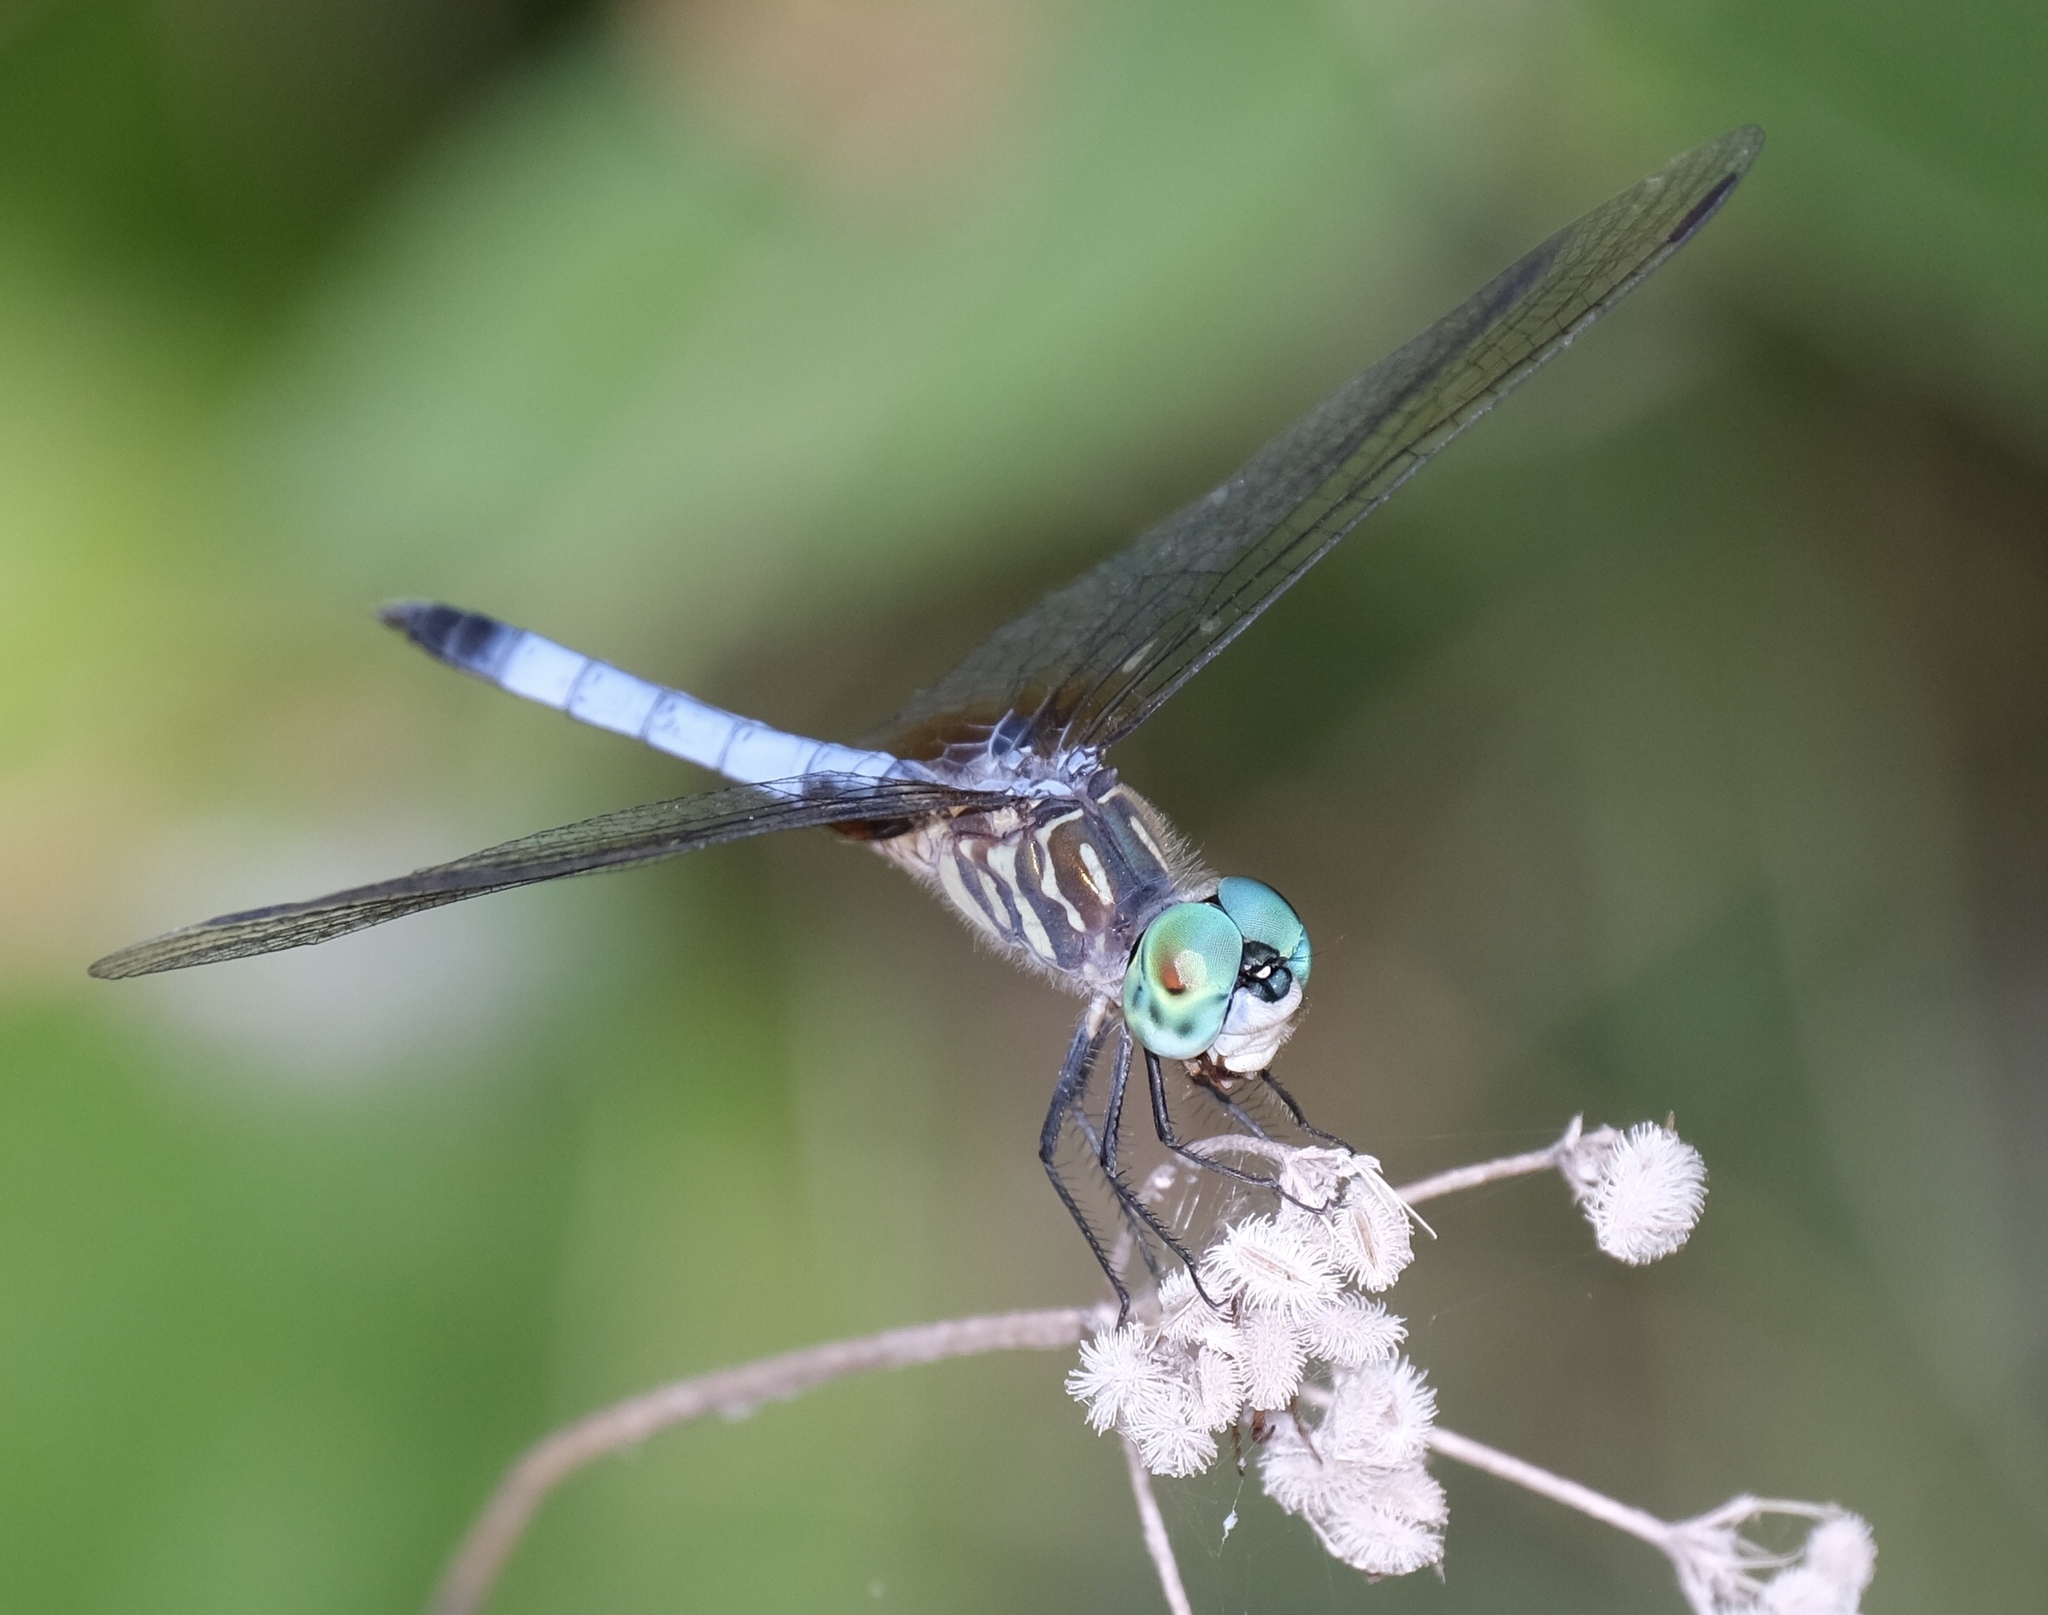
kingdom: Animalia
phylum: Arthropoda
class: Insecta
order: Odonata
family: Libellulidae
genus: Pachydiplax
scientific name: Pachydiplax longipennis
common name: Blue dasher
